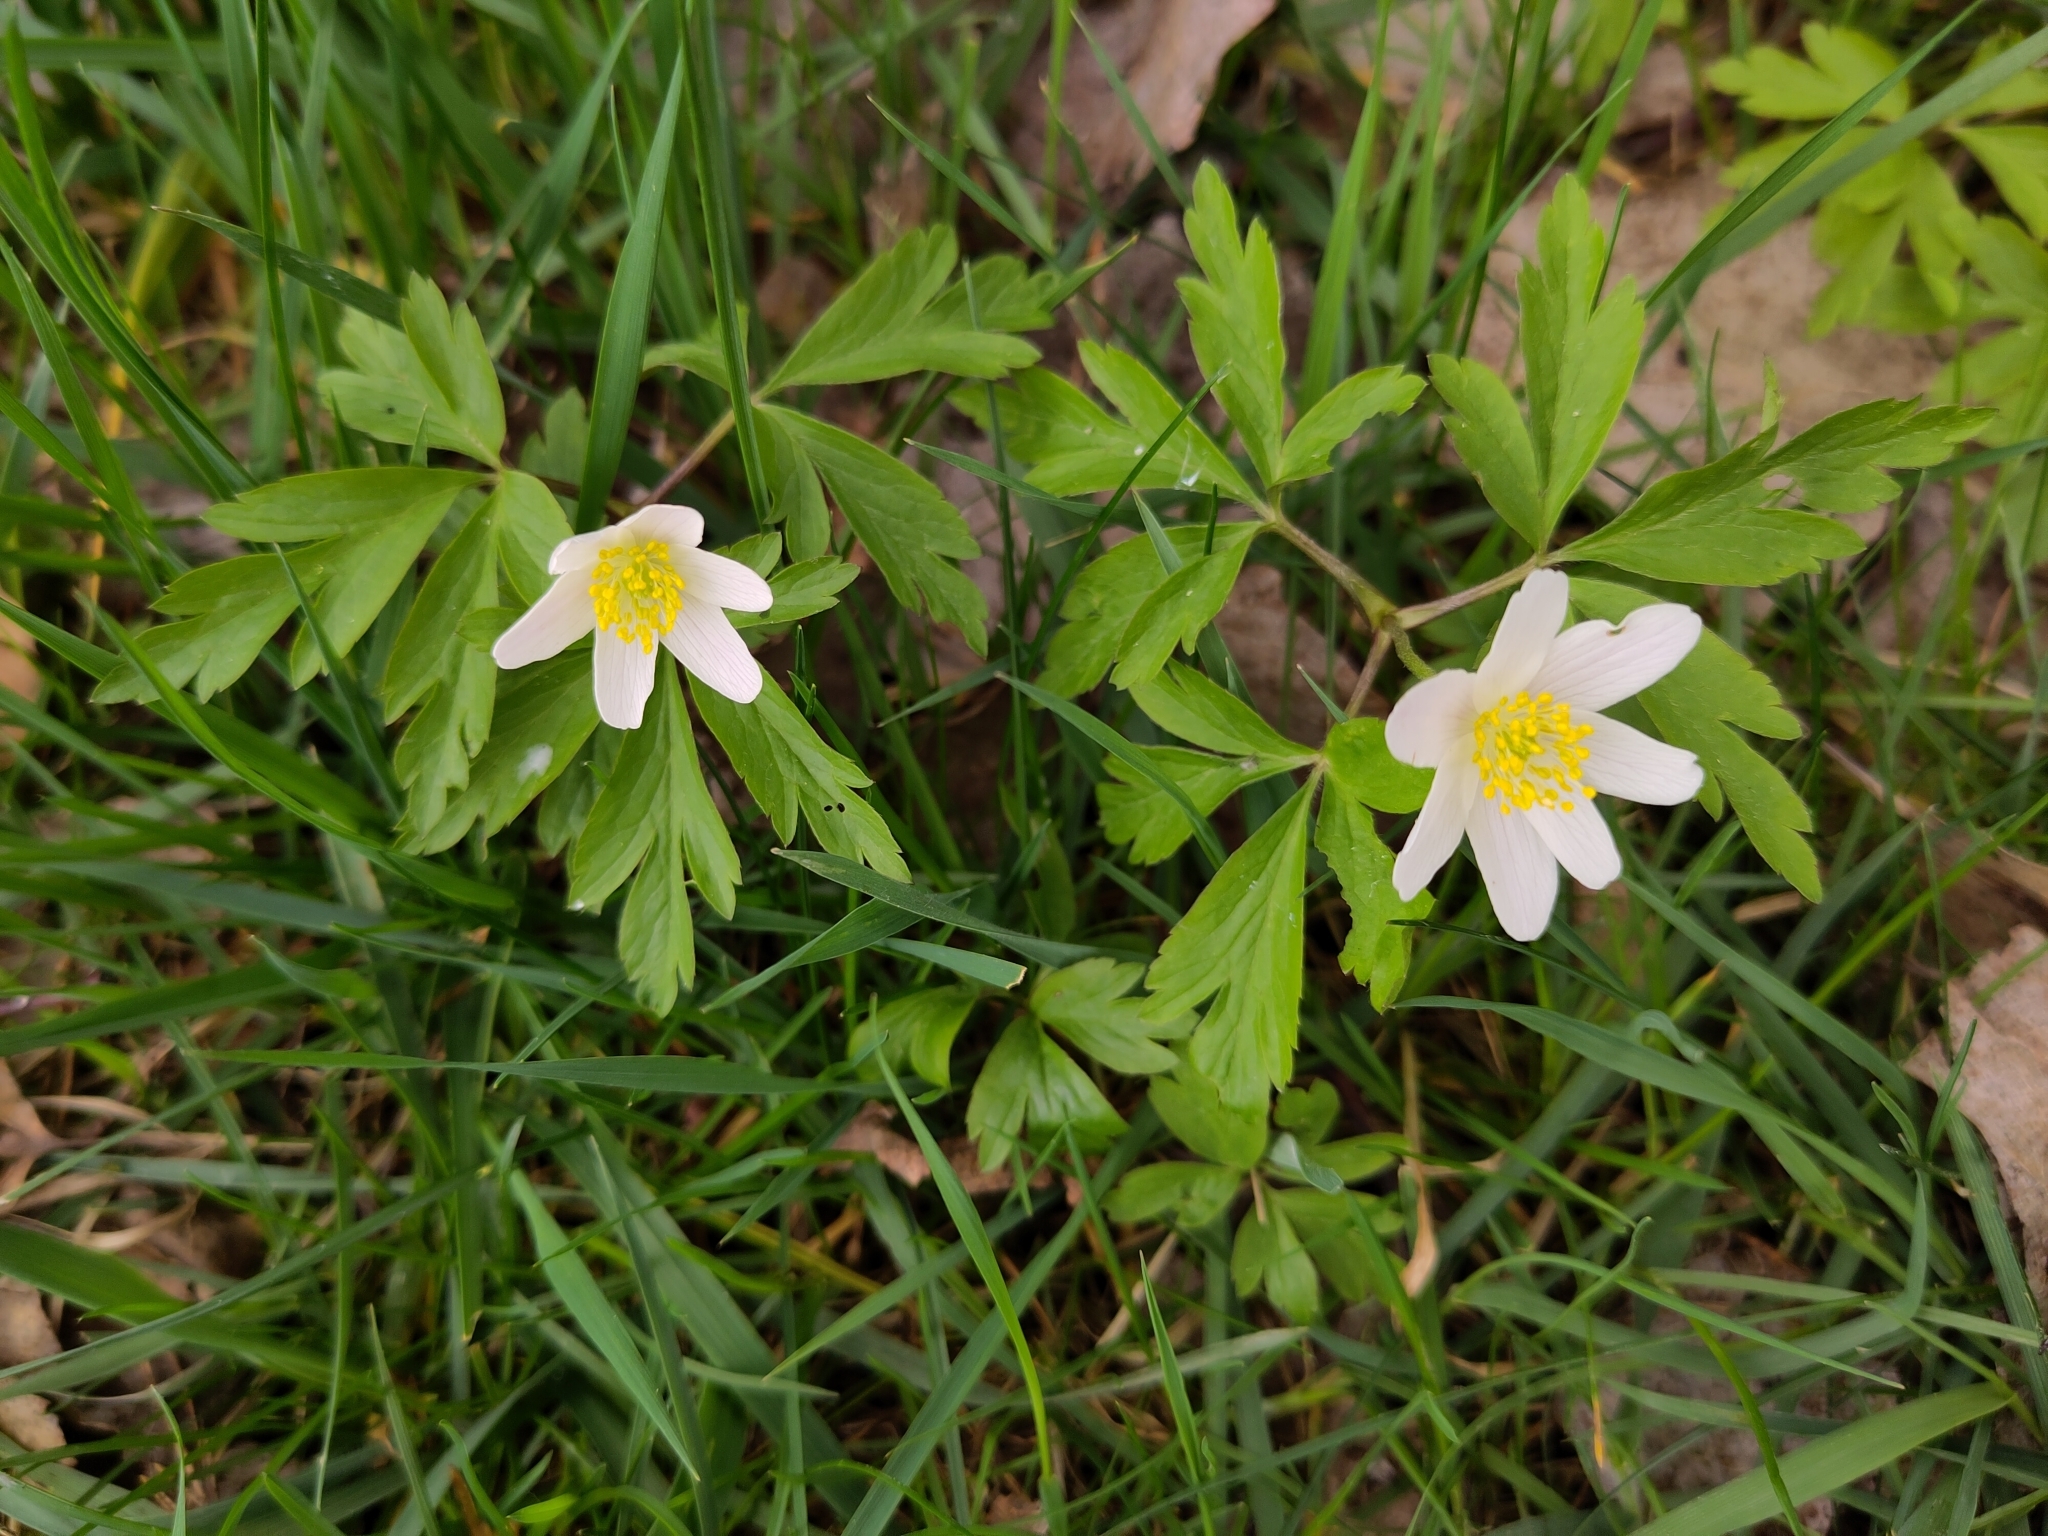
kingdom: Plantae
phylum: Tracheophyta
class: Magnoliopsida
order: Ranunculales
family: Ranunculaceae
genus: Anemone
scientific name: Anemone nemorosa
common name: Wood anemone
